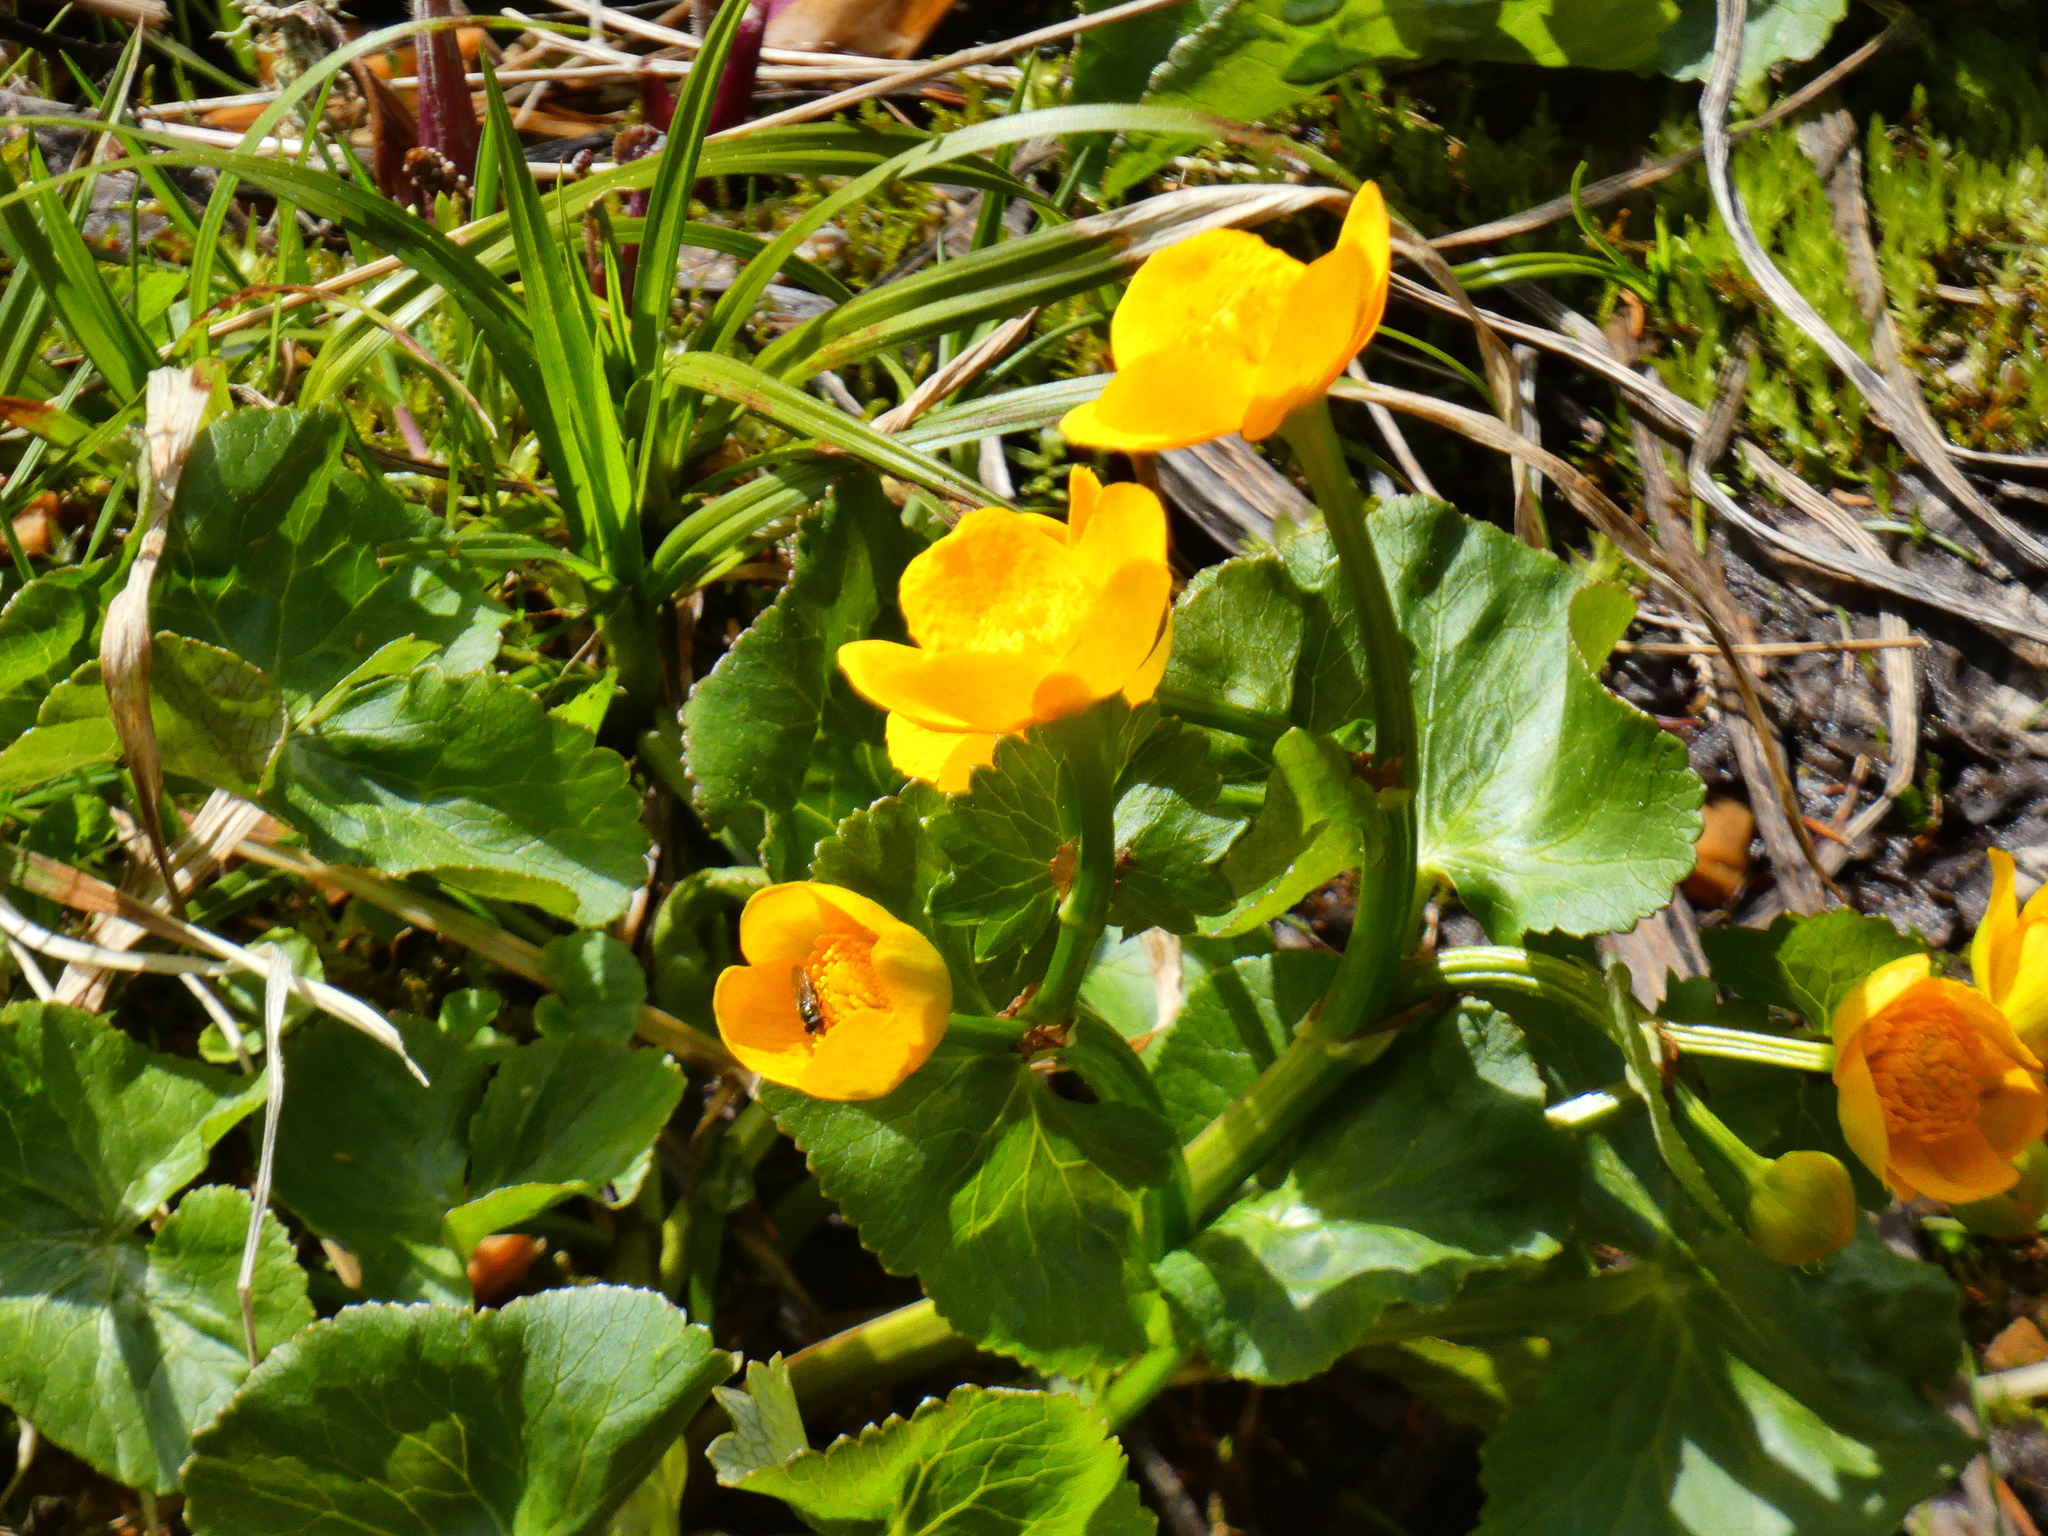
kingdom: Plantae
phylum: Tracheophyta
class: Magnoliopsida
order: Ranunculales
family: Ranunculaceae
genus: Caltha
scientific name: Caltha palustris
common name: Marsh marigold
